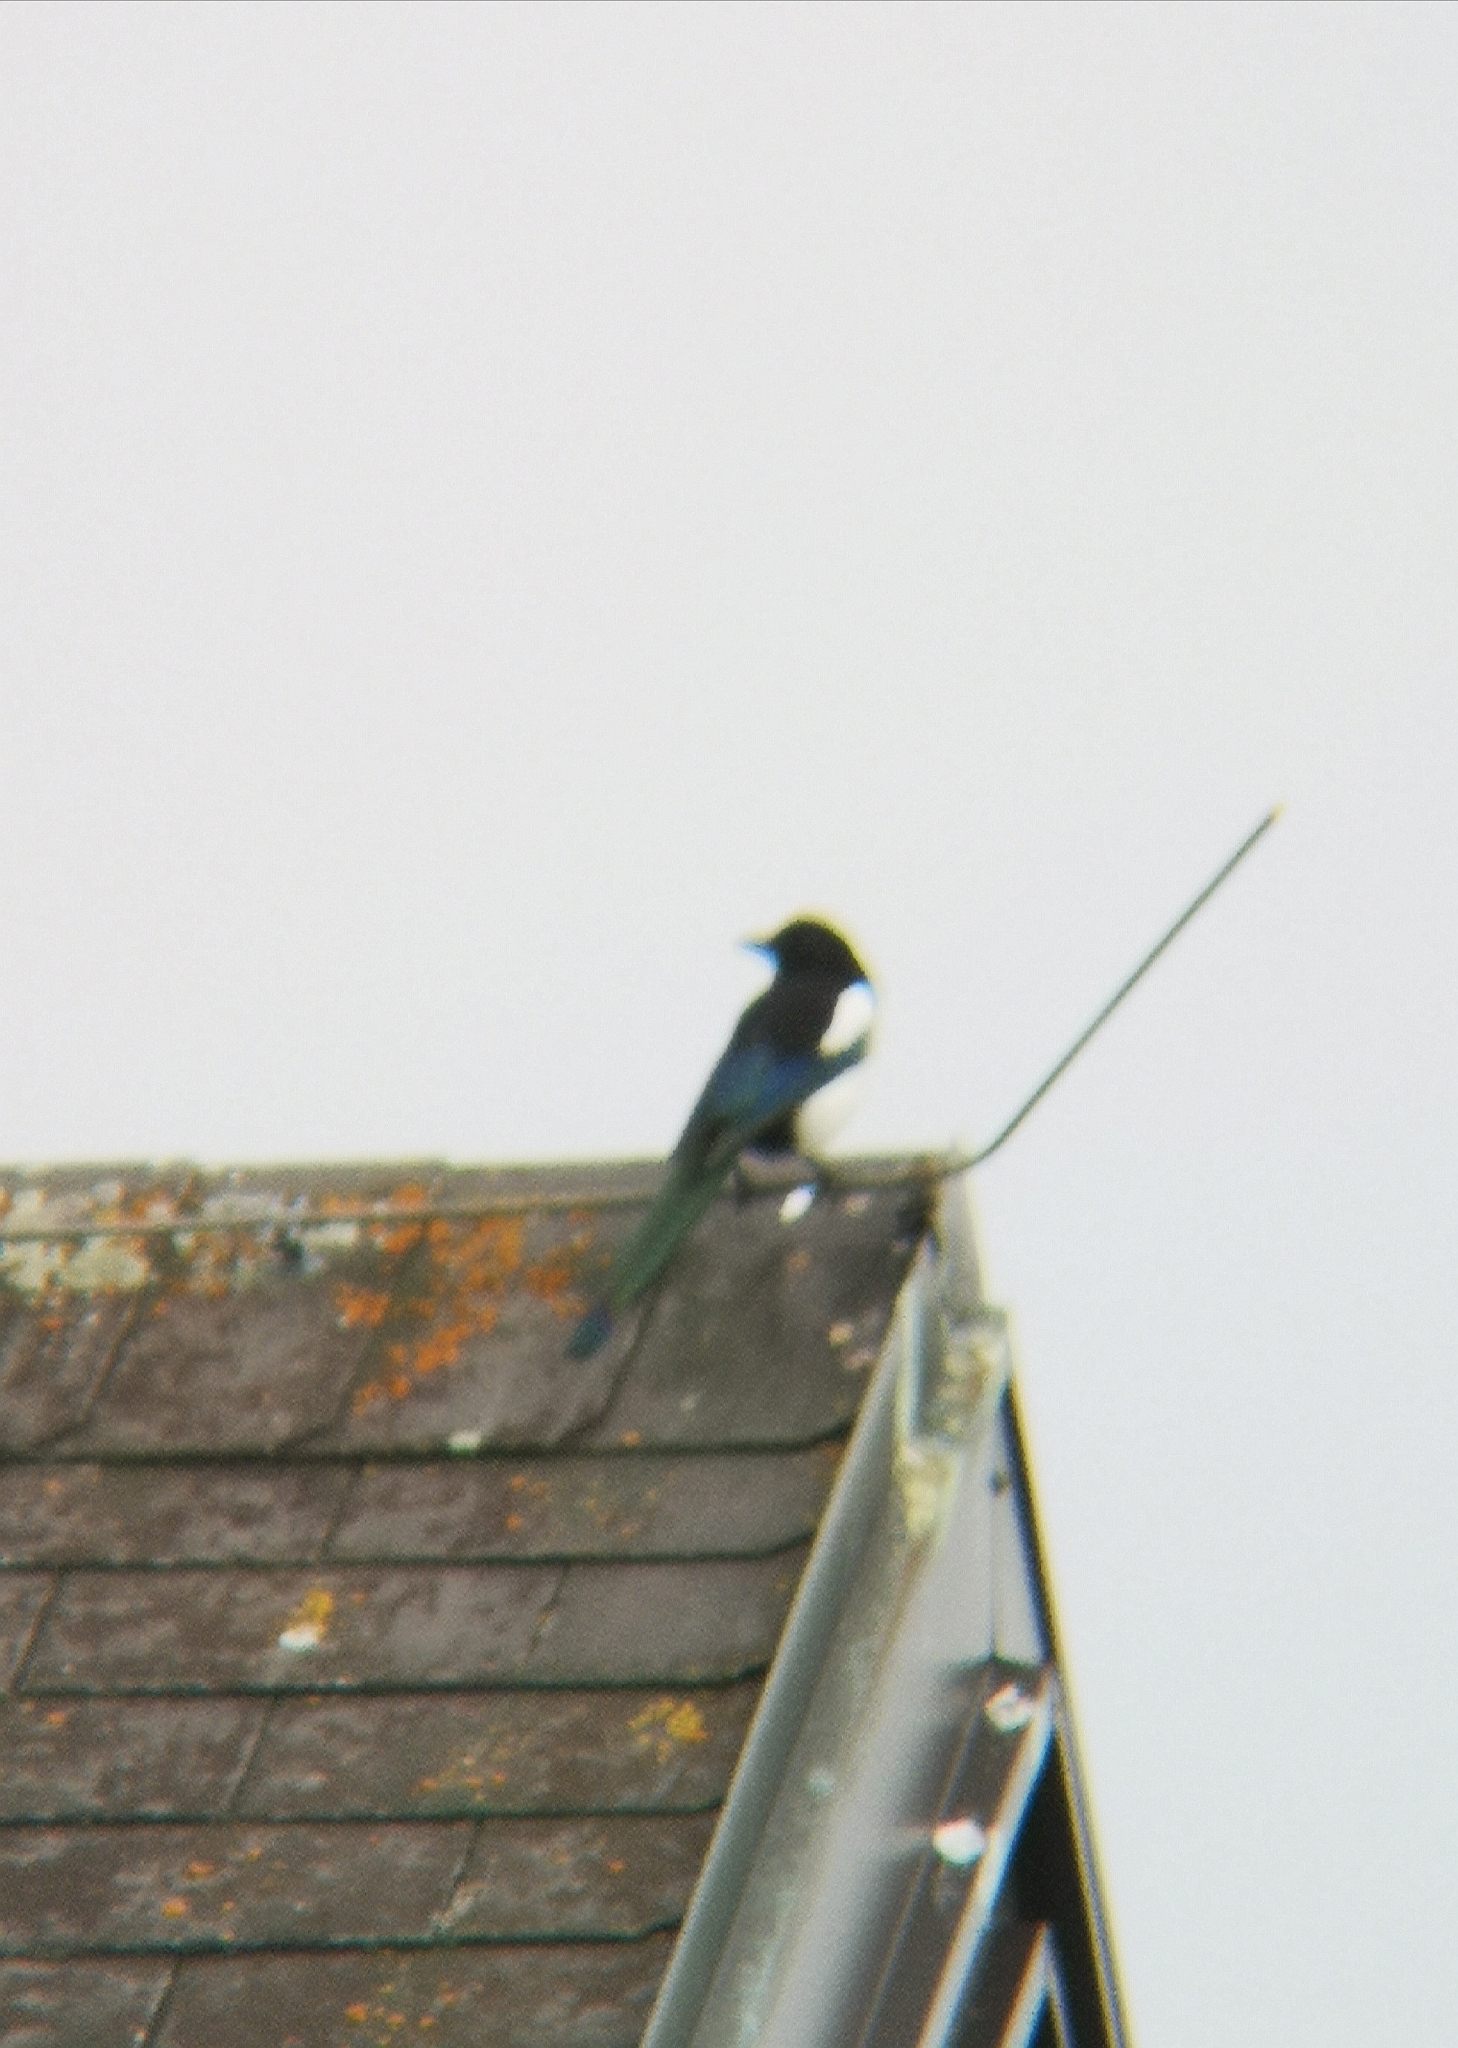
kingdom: Animalia
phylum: Chordata
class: Aves
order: Passeriformes
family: Corvidae
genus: Pica
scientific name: Pica pica
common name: Eurasian magpie
